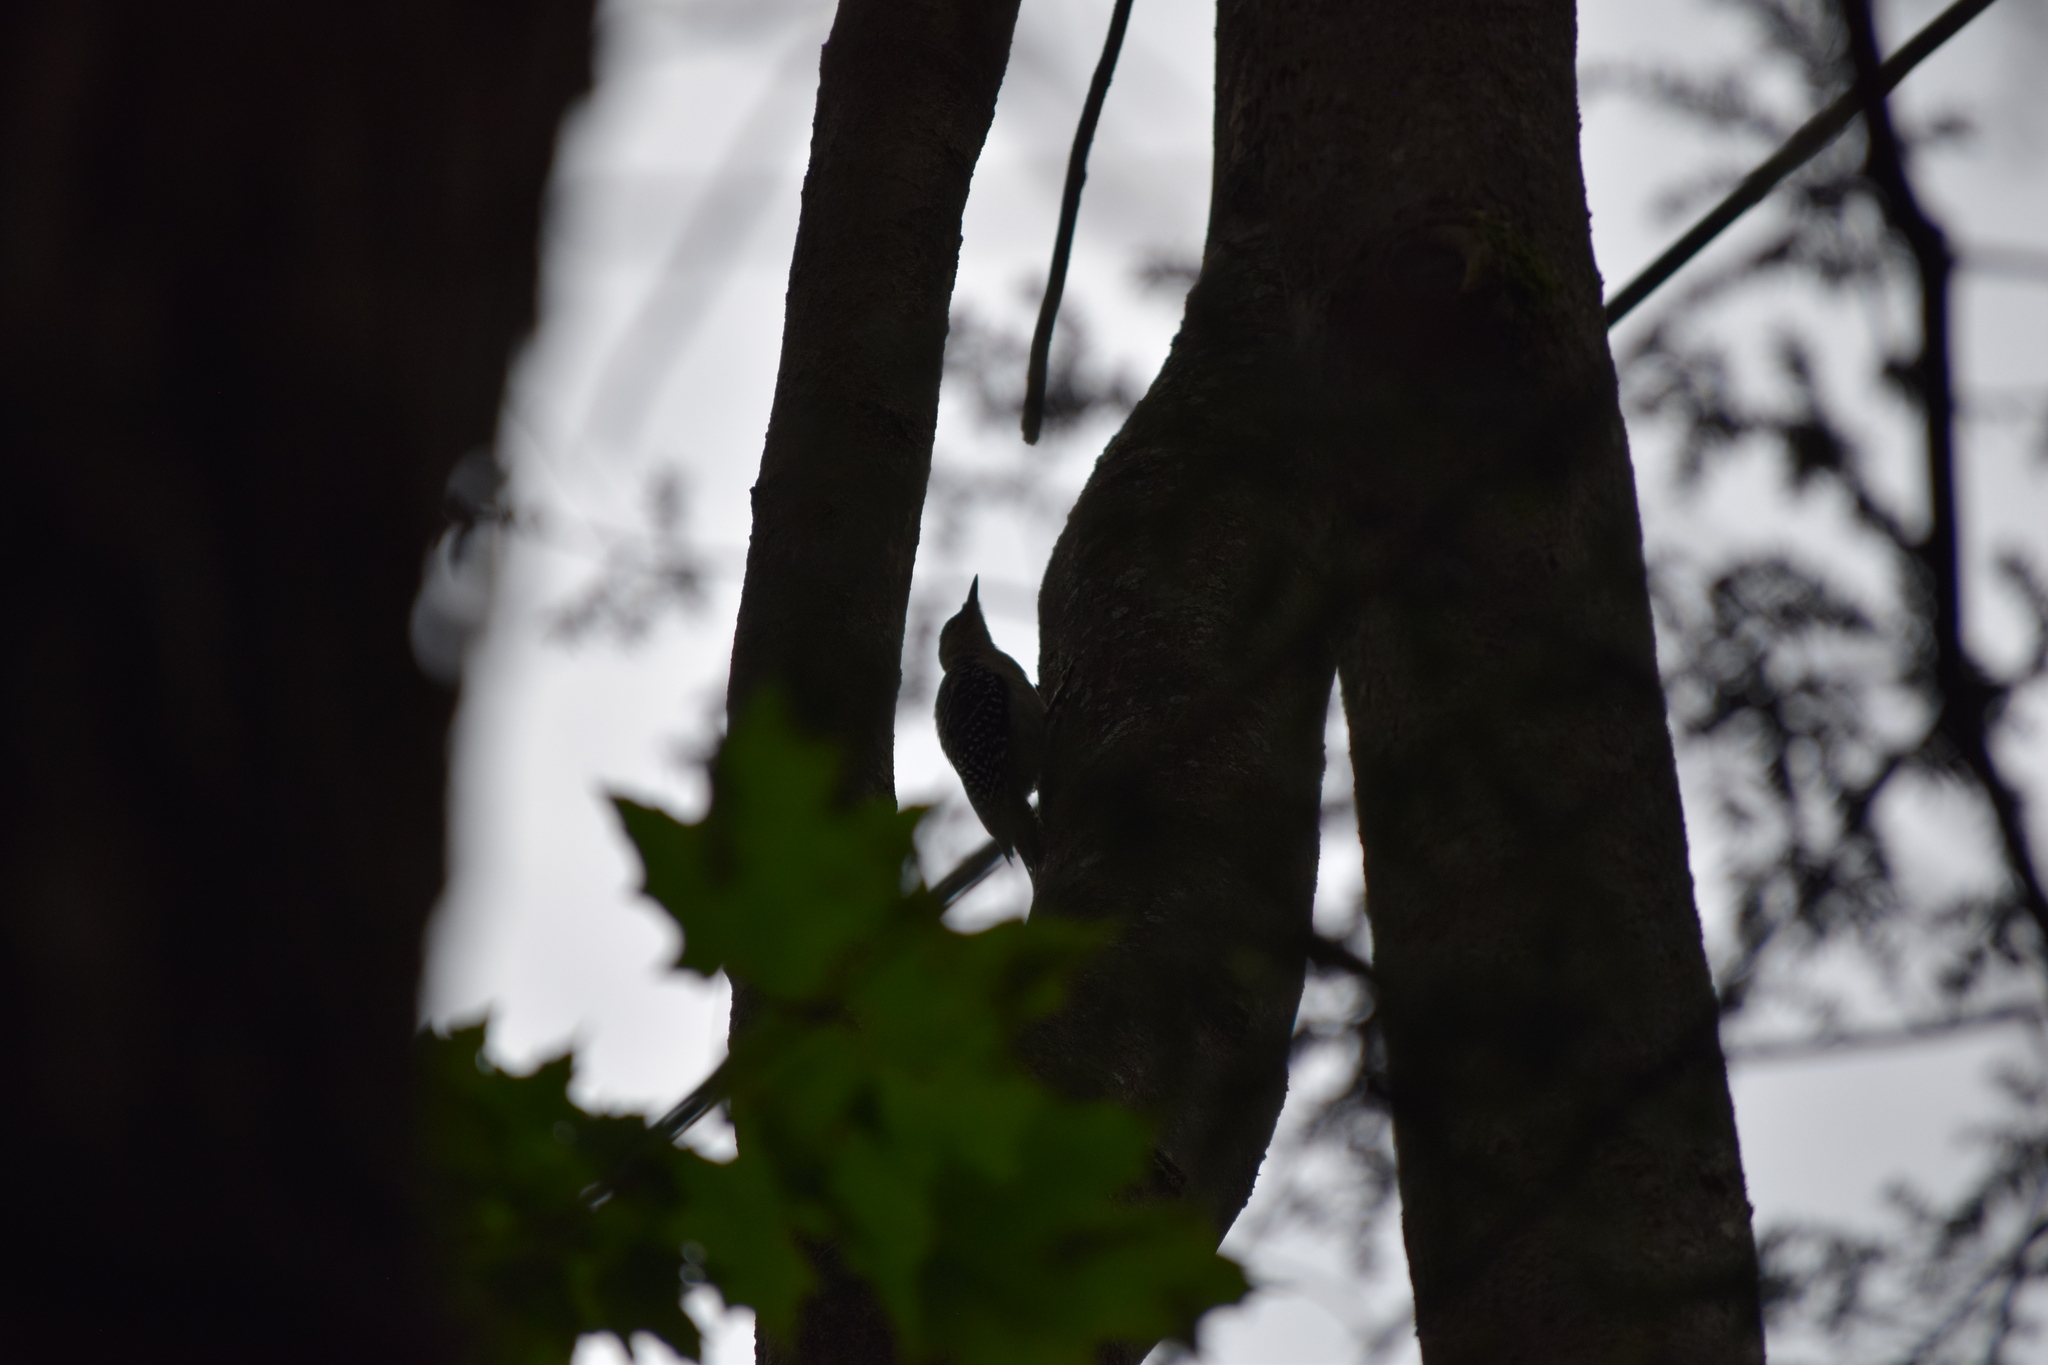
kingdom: Animalia
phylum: Chordata
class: Aves
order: Piciformes
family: Picidae
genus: Melanerpes
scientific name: Melanerpes carolinus
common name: Red-bellied woodpecker
